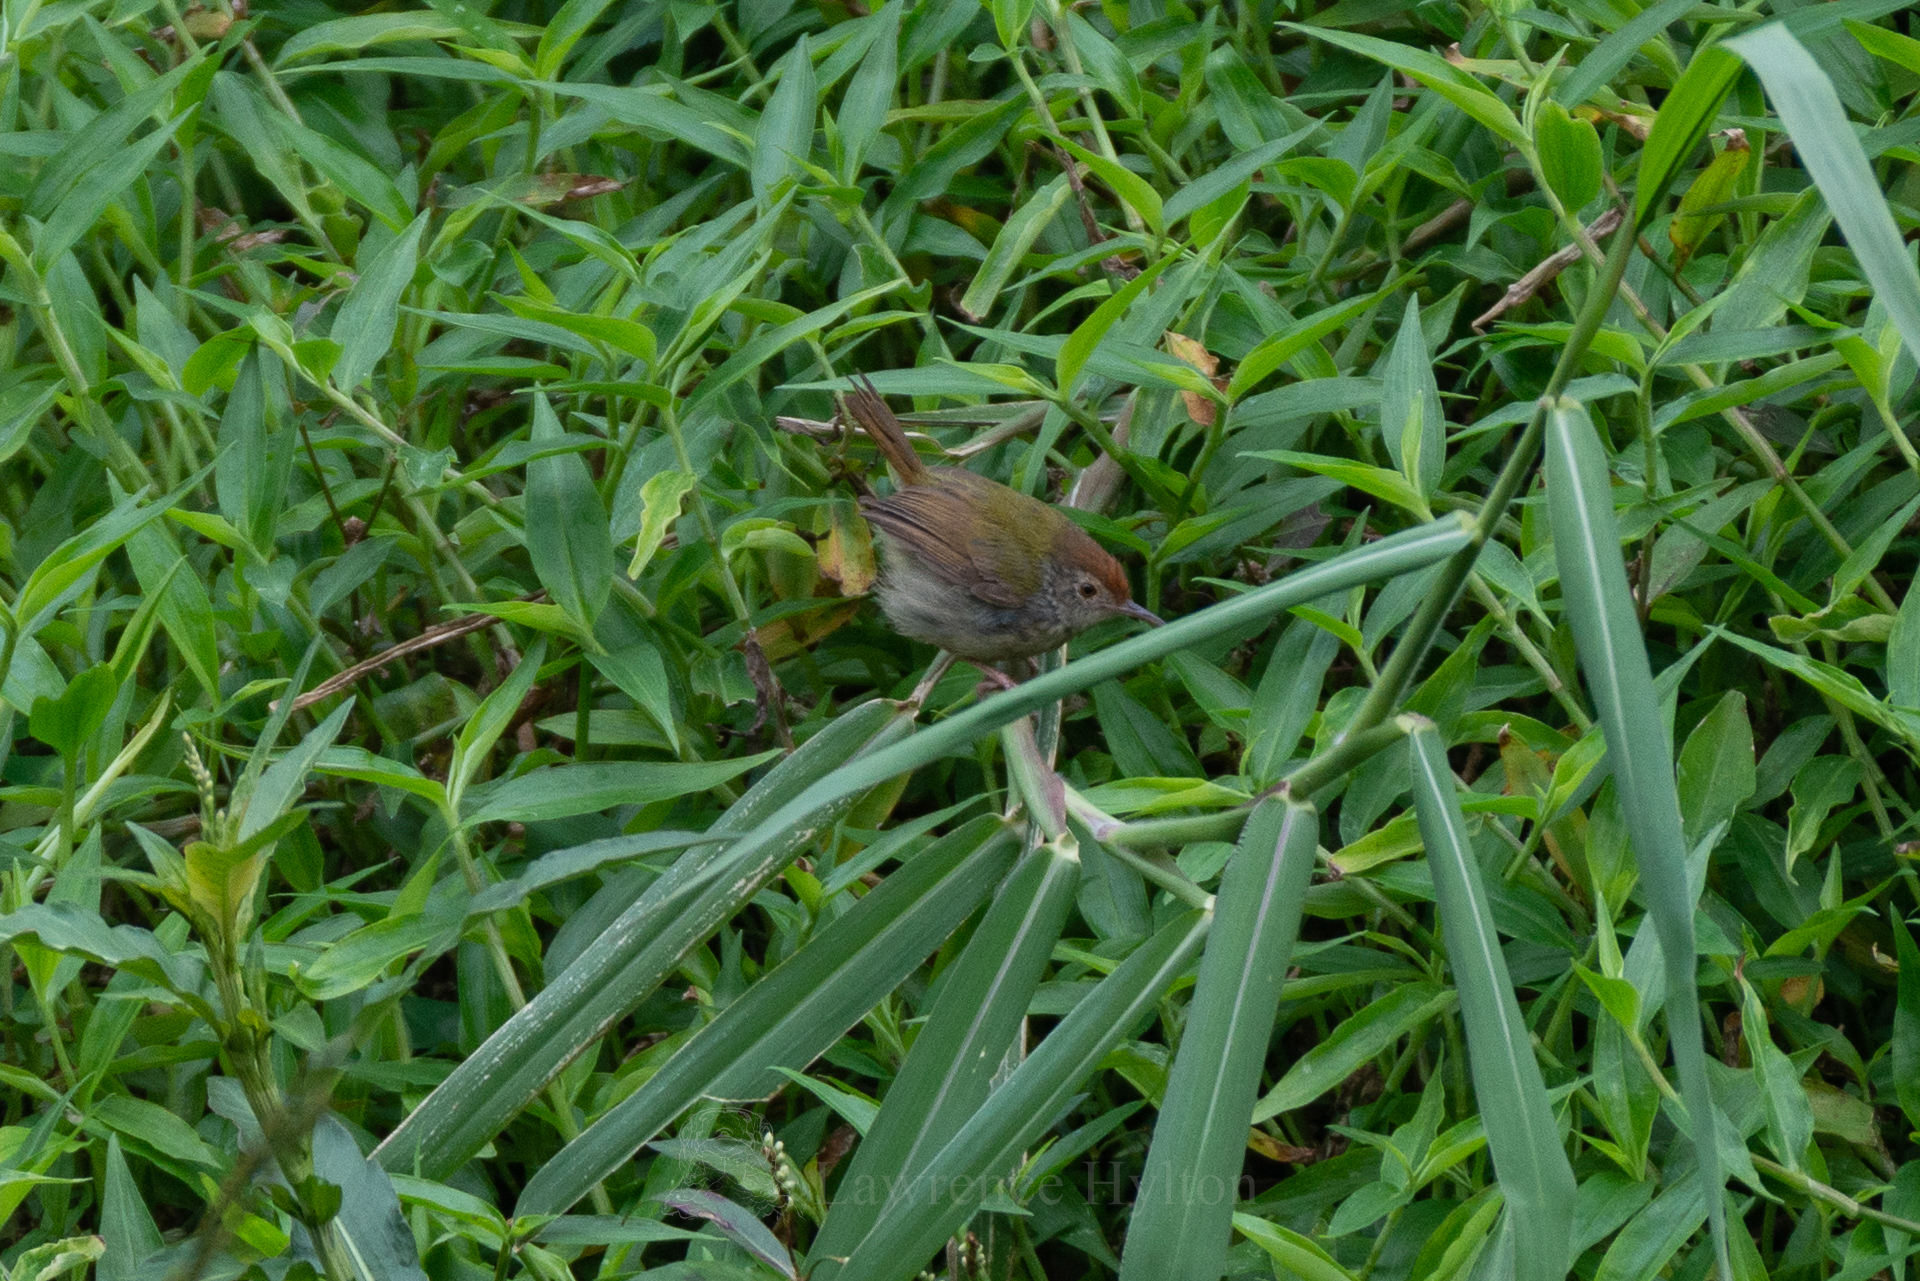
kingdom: Animalia
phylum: Chordata
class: Aves
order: Passeriformes
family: Cisticolidae
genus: Orthotomus
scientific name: Orthotomus sutorius
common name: Common tailorbird
